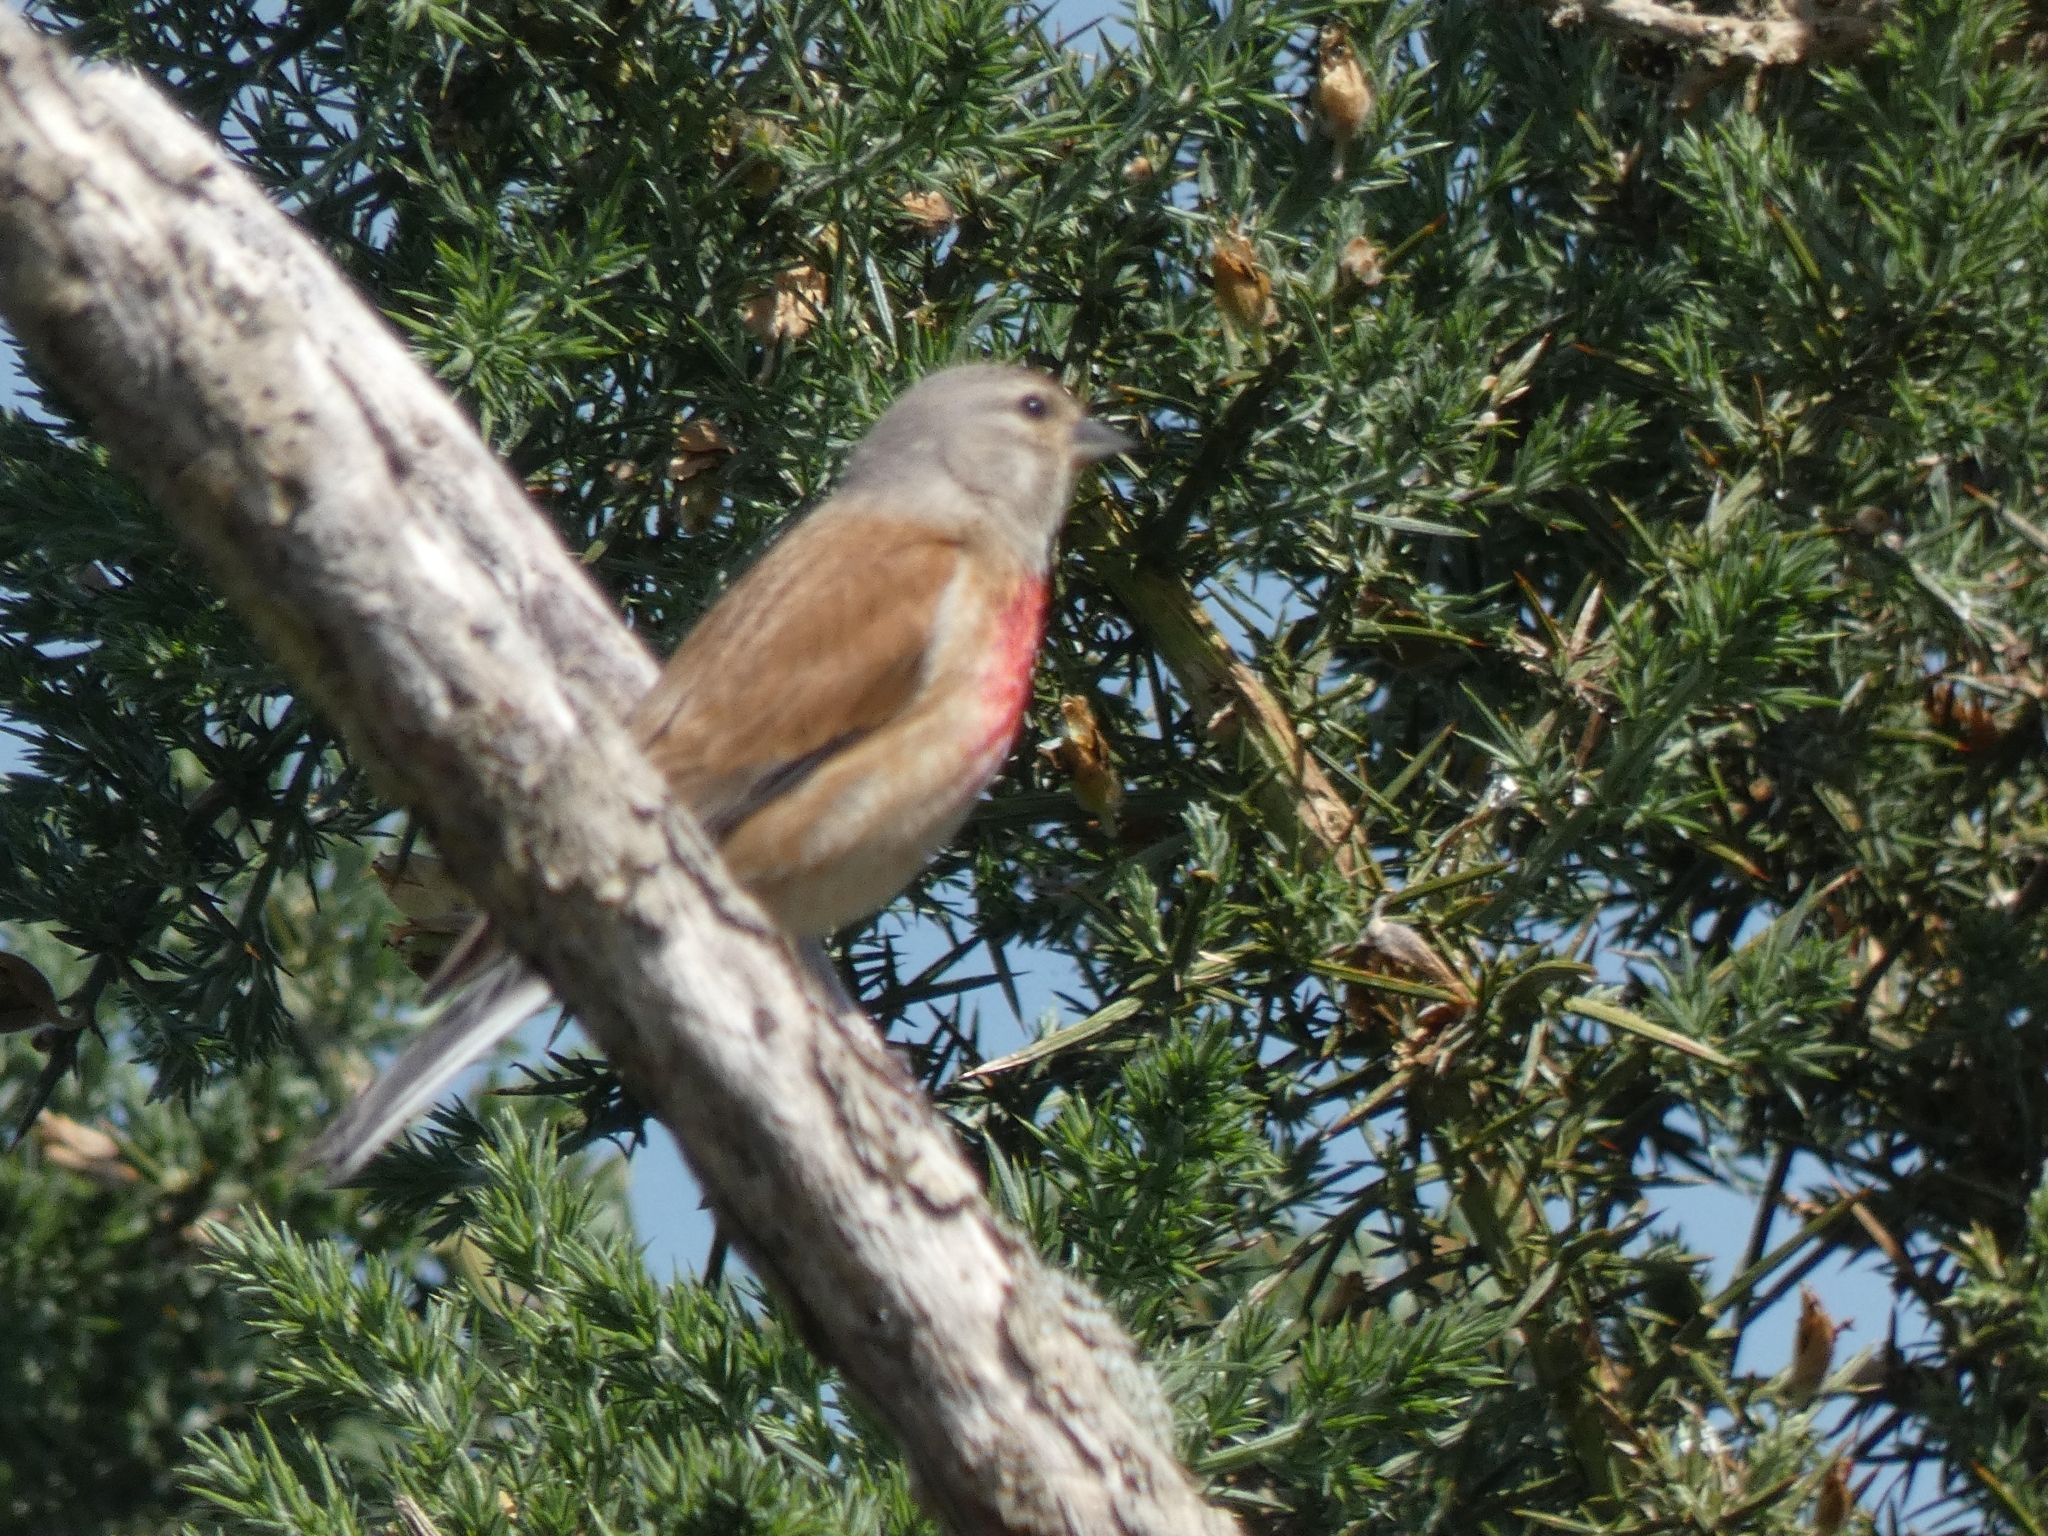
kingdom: Animalia
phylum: Chordata
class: Aves
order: Passeriformes
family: Fringillidae
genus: Linaria
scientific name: Linaria cannabina
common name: Common linnet
